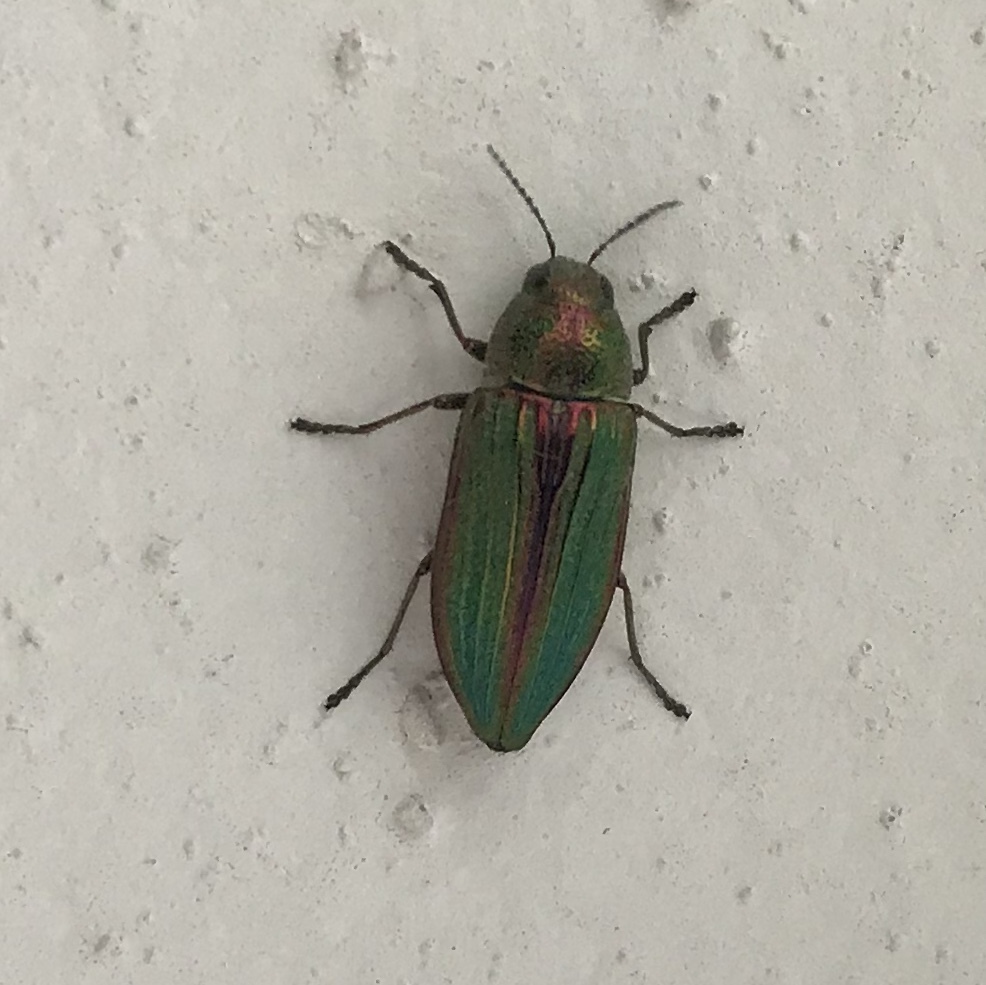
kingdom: Animalia
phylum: Arthropoda
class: Insecta
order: Coleoptera
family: Buprestidae
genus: Buprestis
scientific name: Buprestis aurulenta
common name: Golden buprestid
